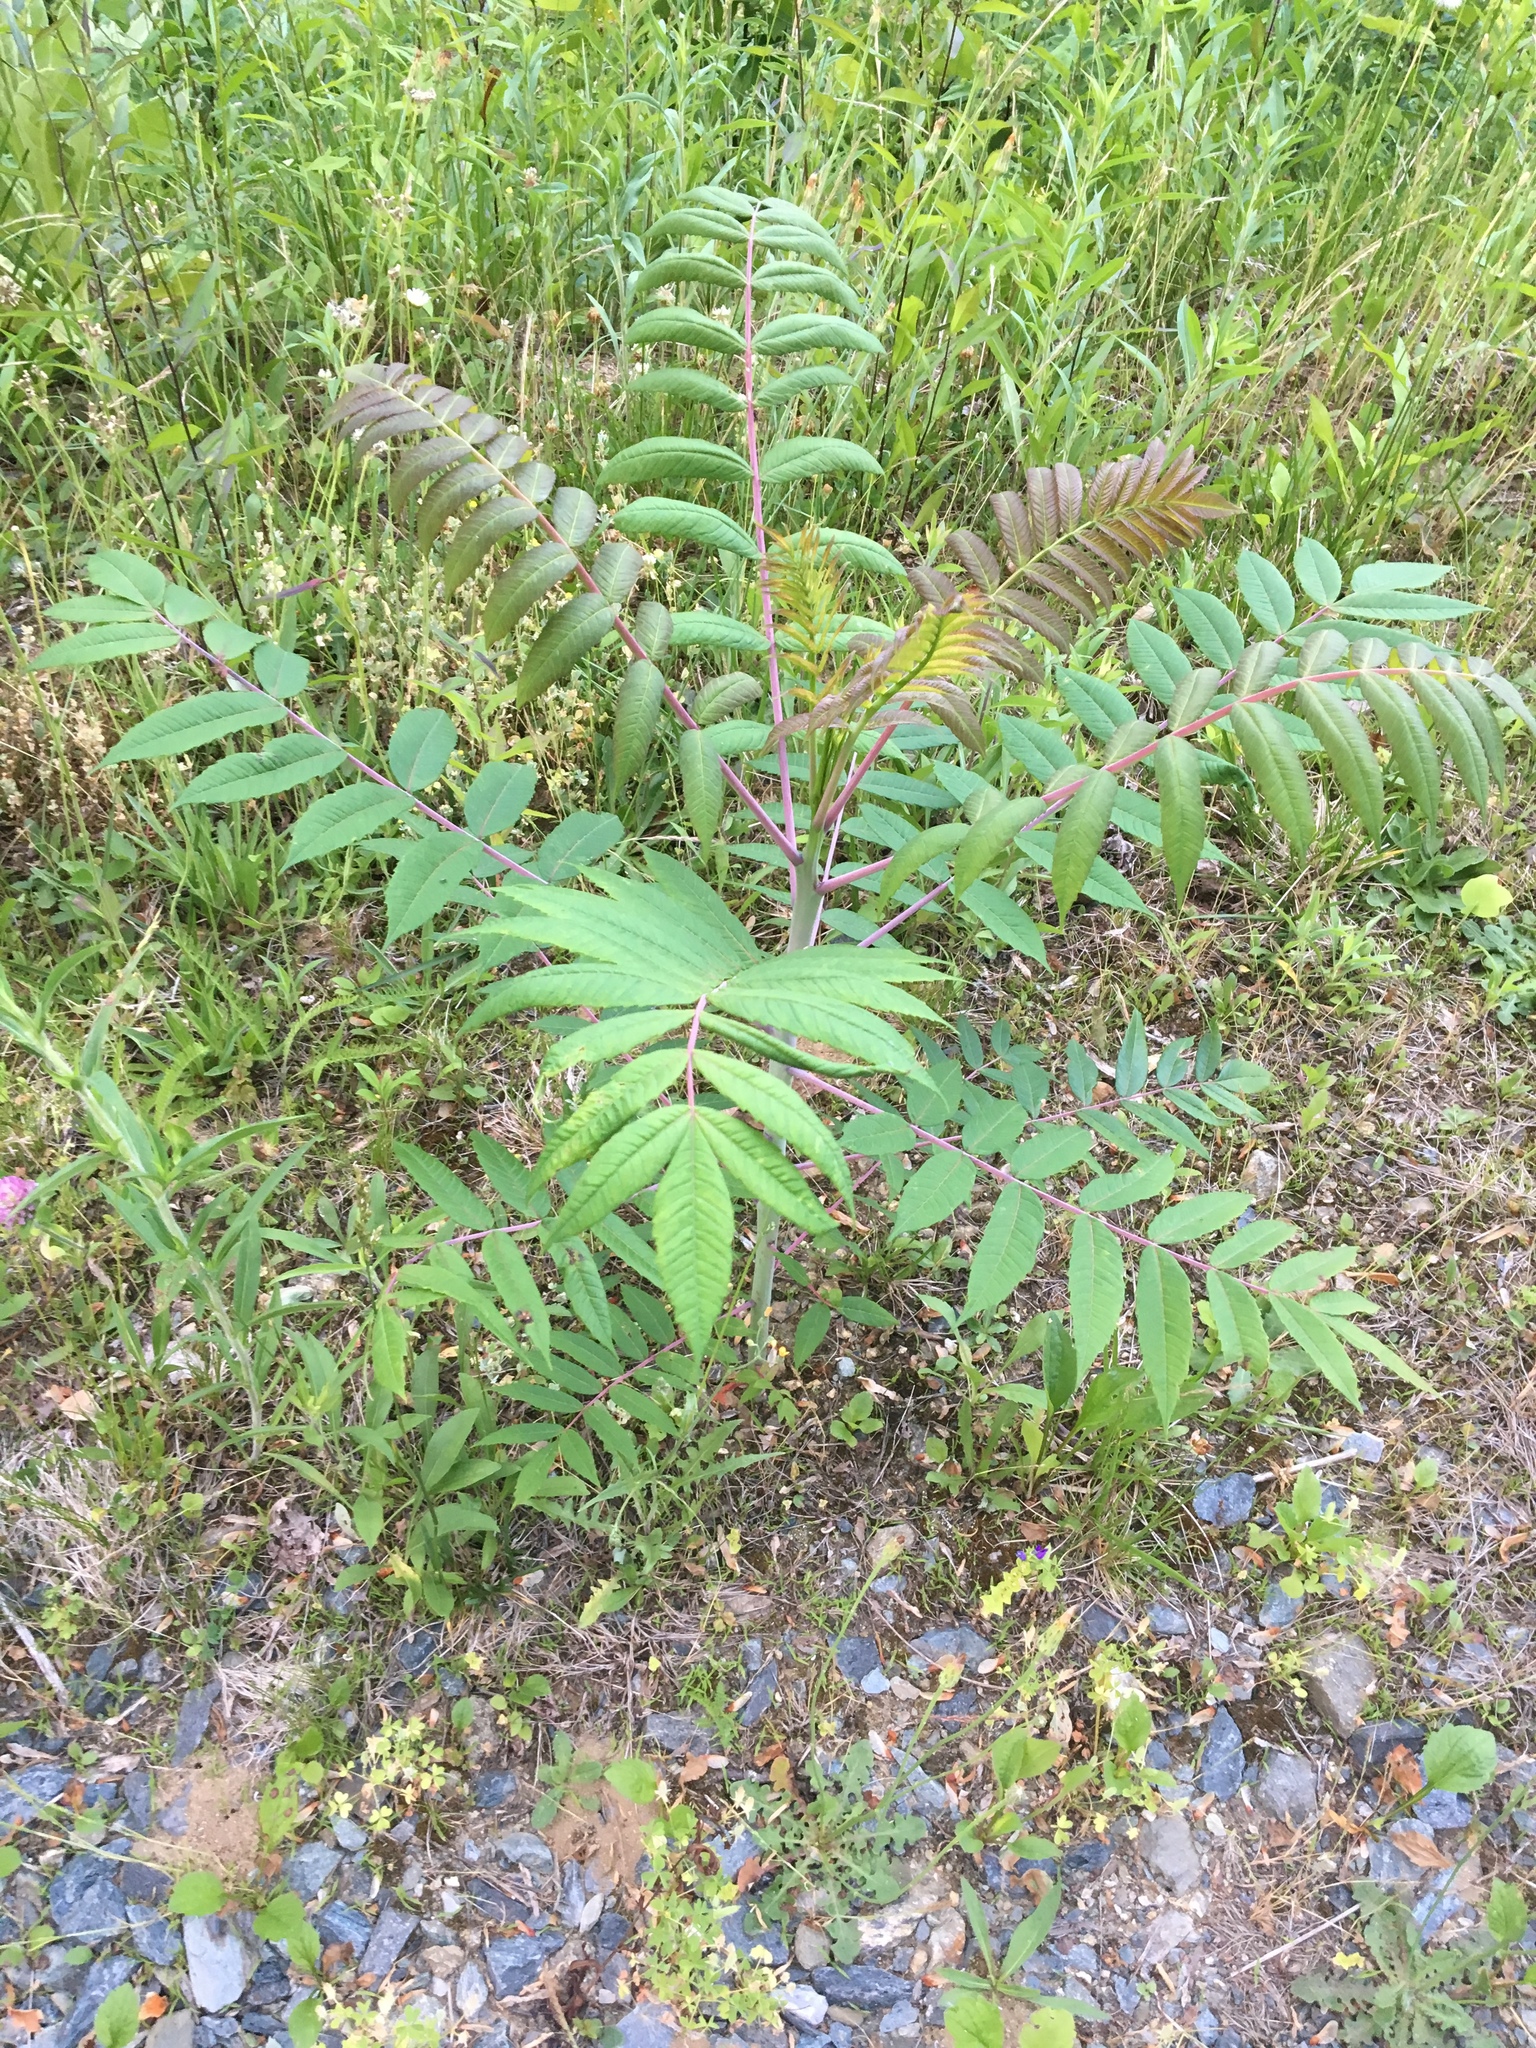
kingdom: Plantae
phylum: Tracheophyta
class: Magnoliopsida
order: Sapindales
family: Anacardiaceae
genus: Rhus
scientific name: Rhus glabra
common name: Scarlet sumac
